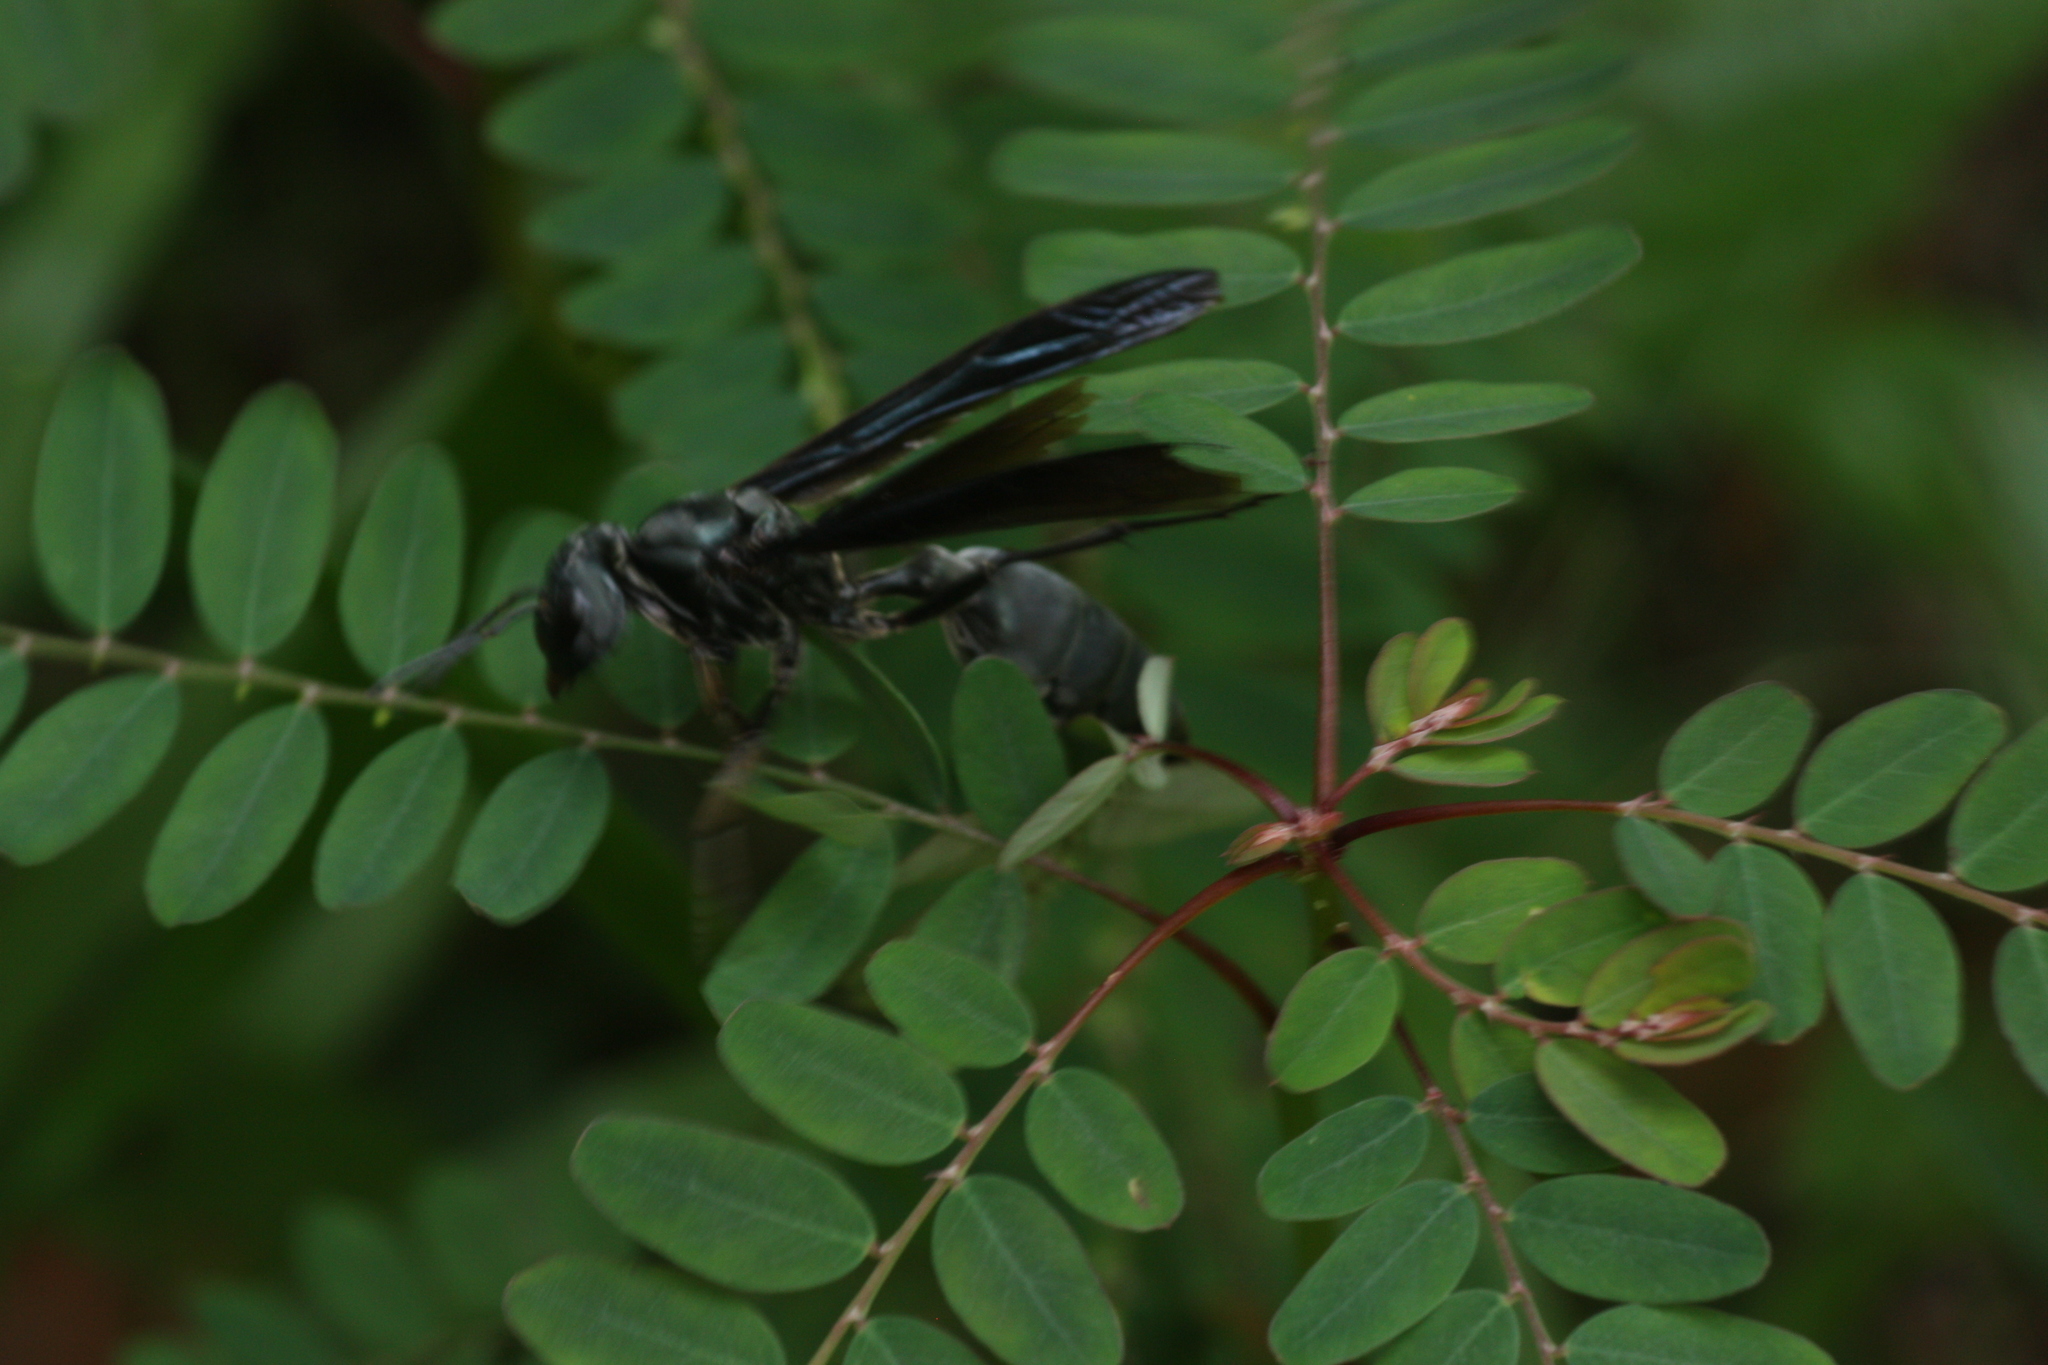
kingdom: Animalia
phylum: Arthropoda
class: Insecta
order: Hymenoptera
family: Vespidae
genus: Synoeca
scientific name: Synoeca septentrionalis
